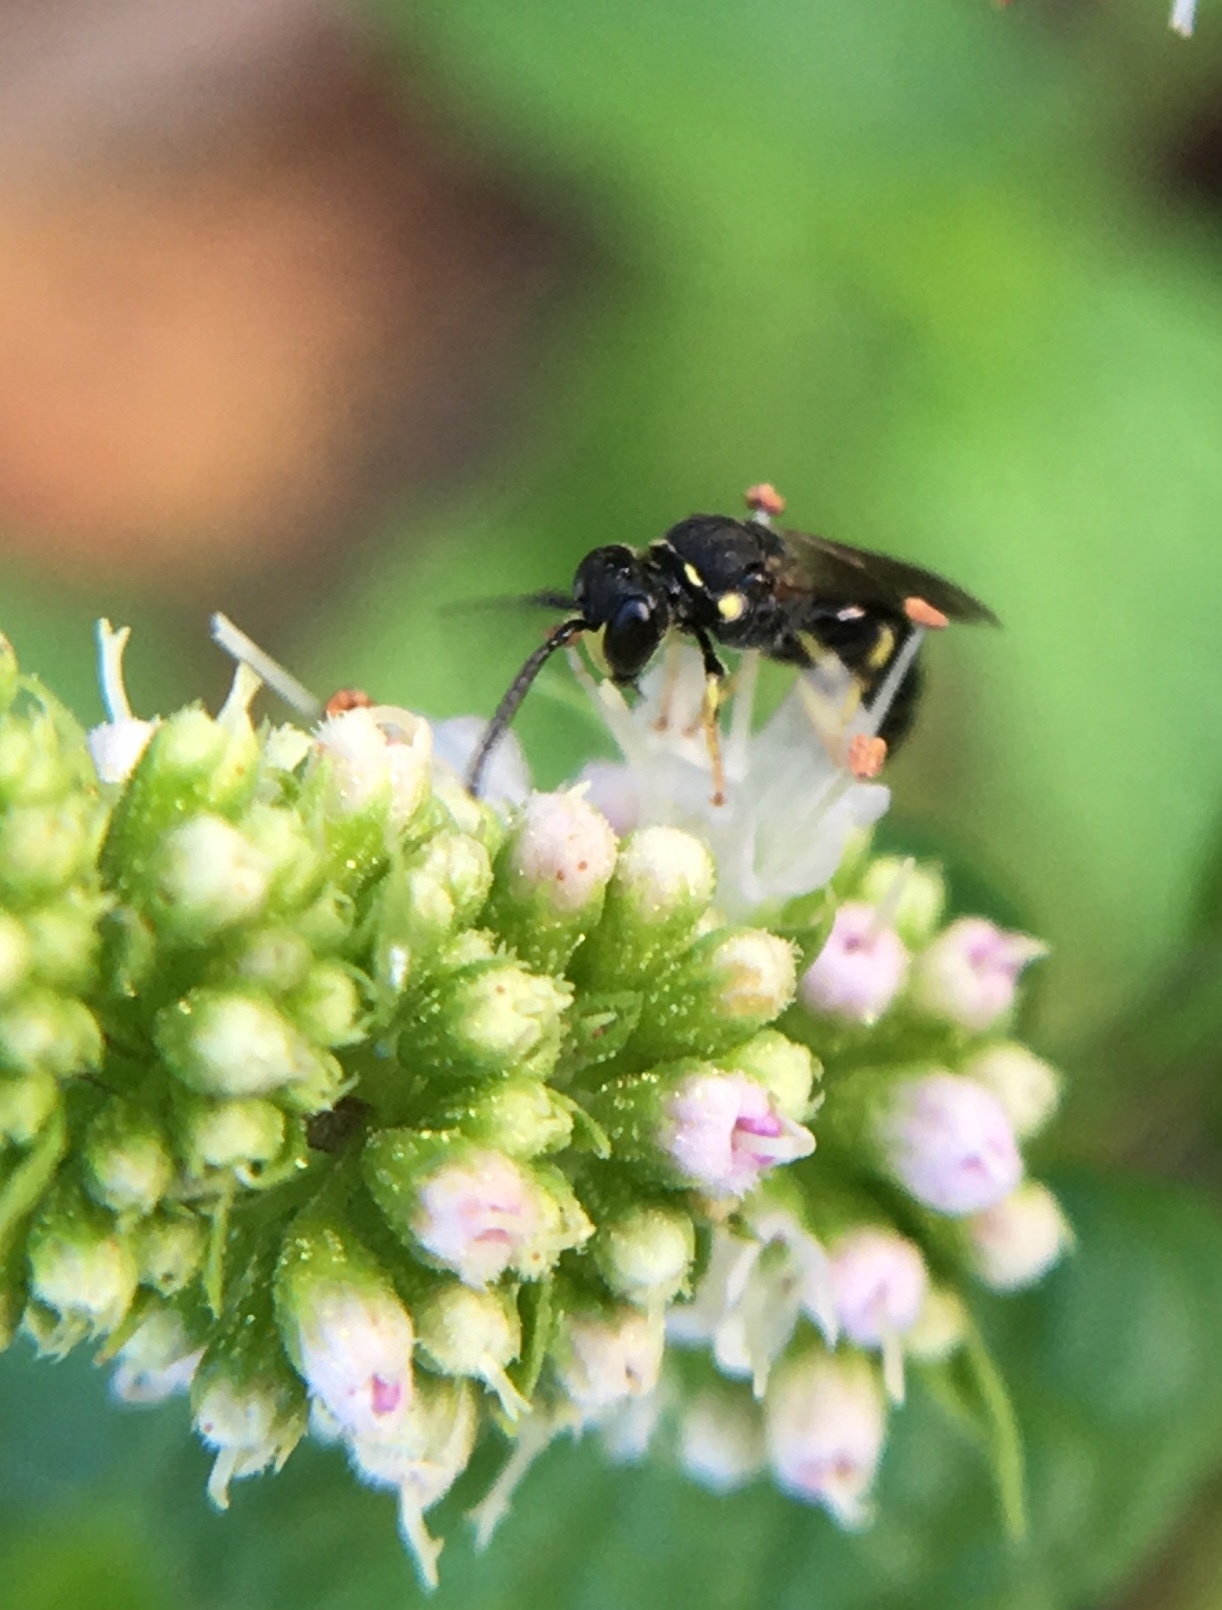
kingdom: Animalia
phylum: Arthropoda
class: Insecta
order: Hymenoptera
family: Colletidae
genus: Hylaeus
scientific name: Hylaeus modestus
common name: Yellow-faced bee
